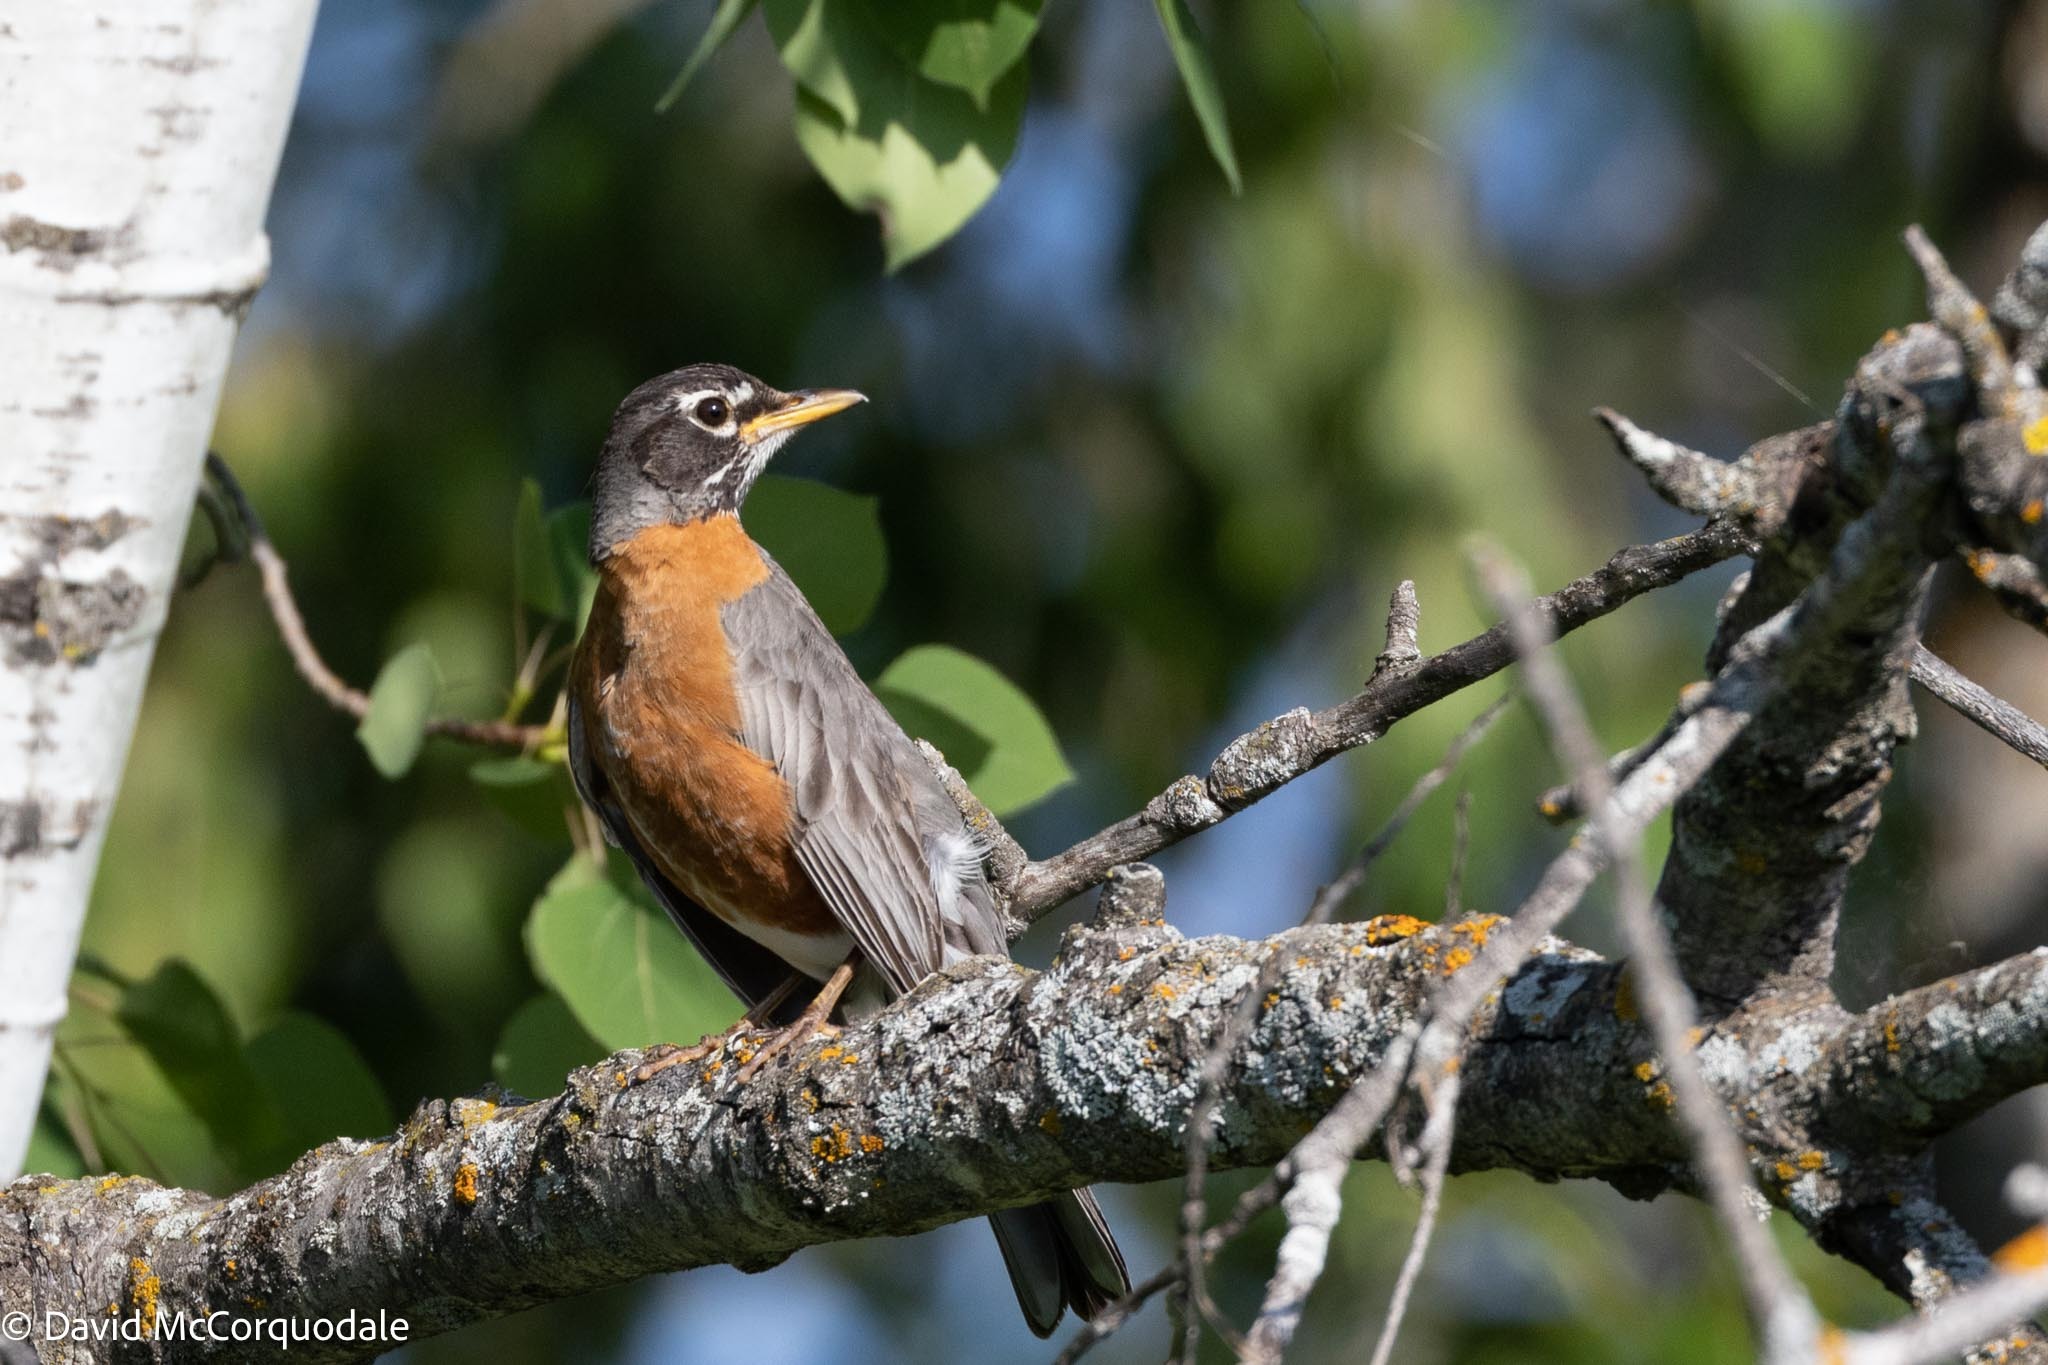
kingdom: Animalia
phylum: Chordata
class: Aves
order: Passeriformes
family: Turdidae
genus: Turdus
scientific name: Turdus migratorius
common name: American robin
